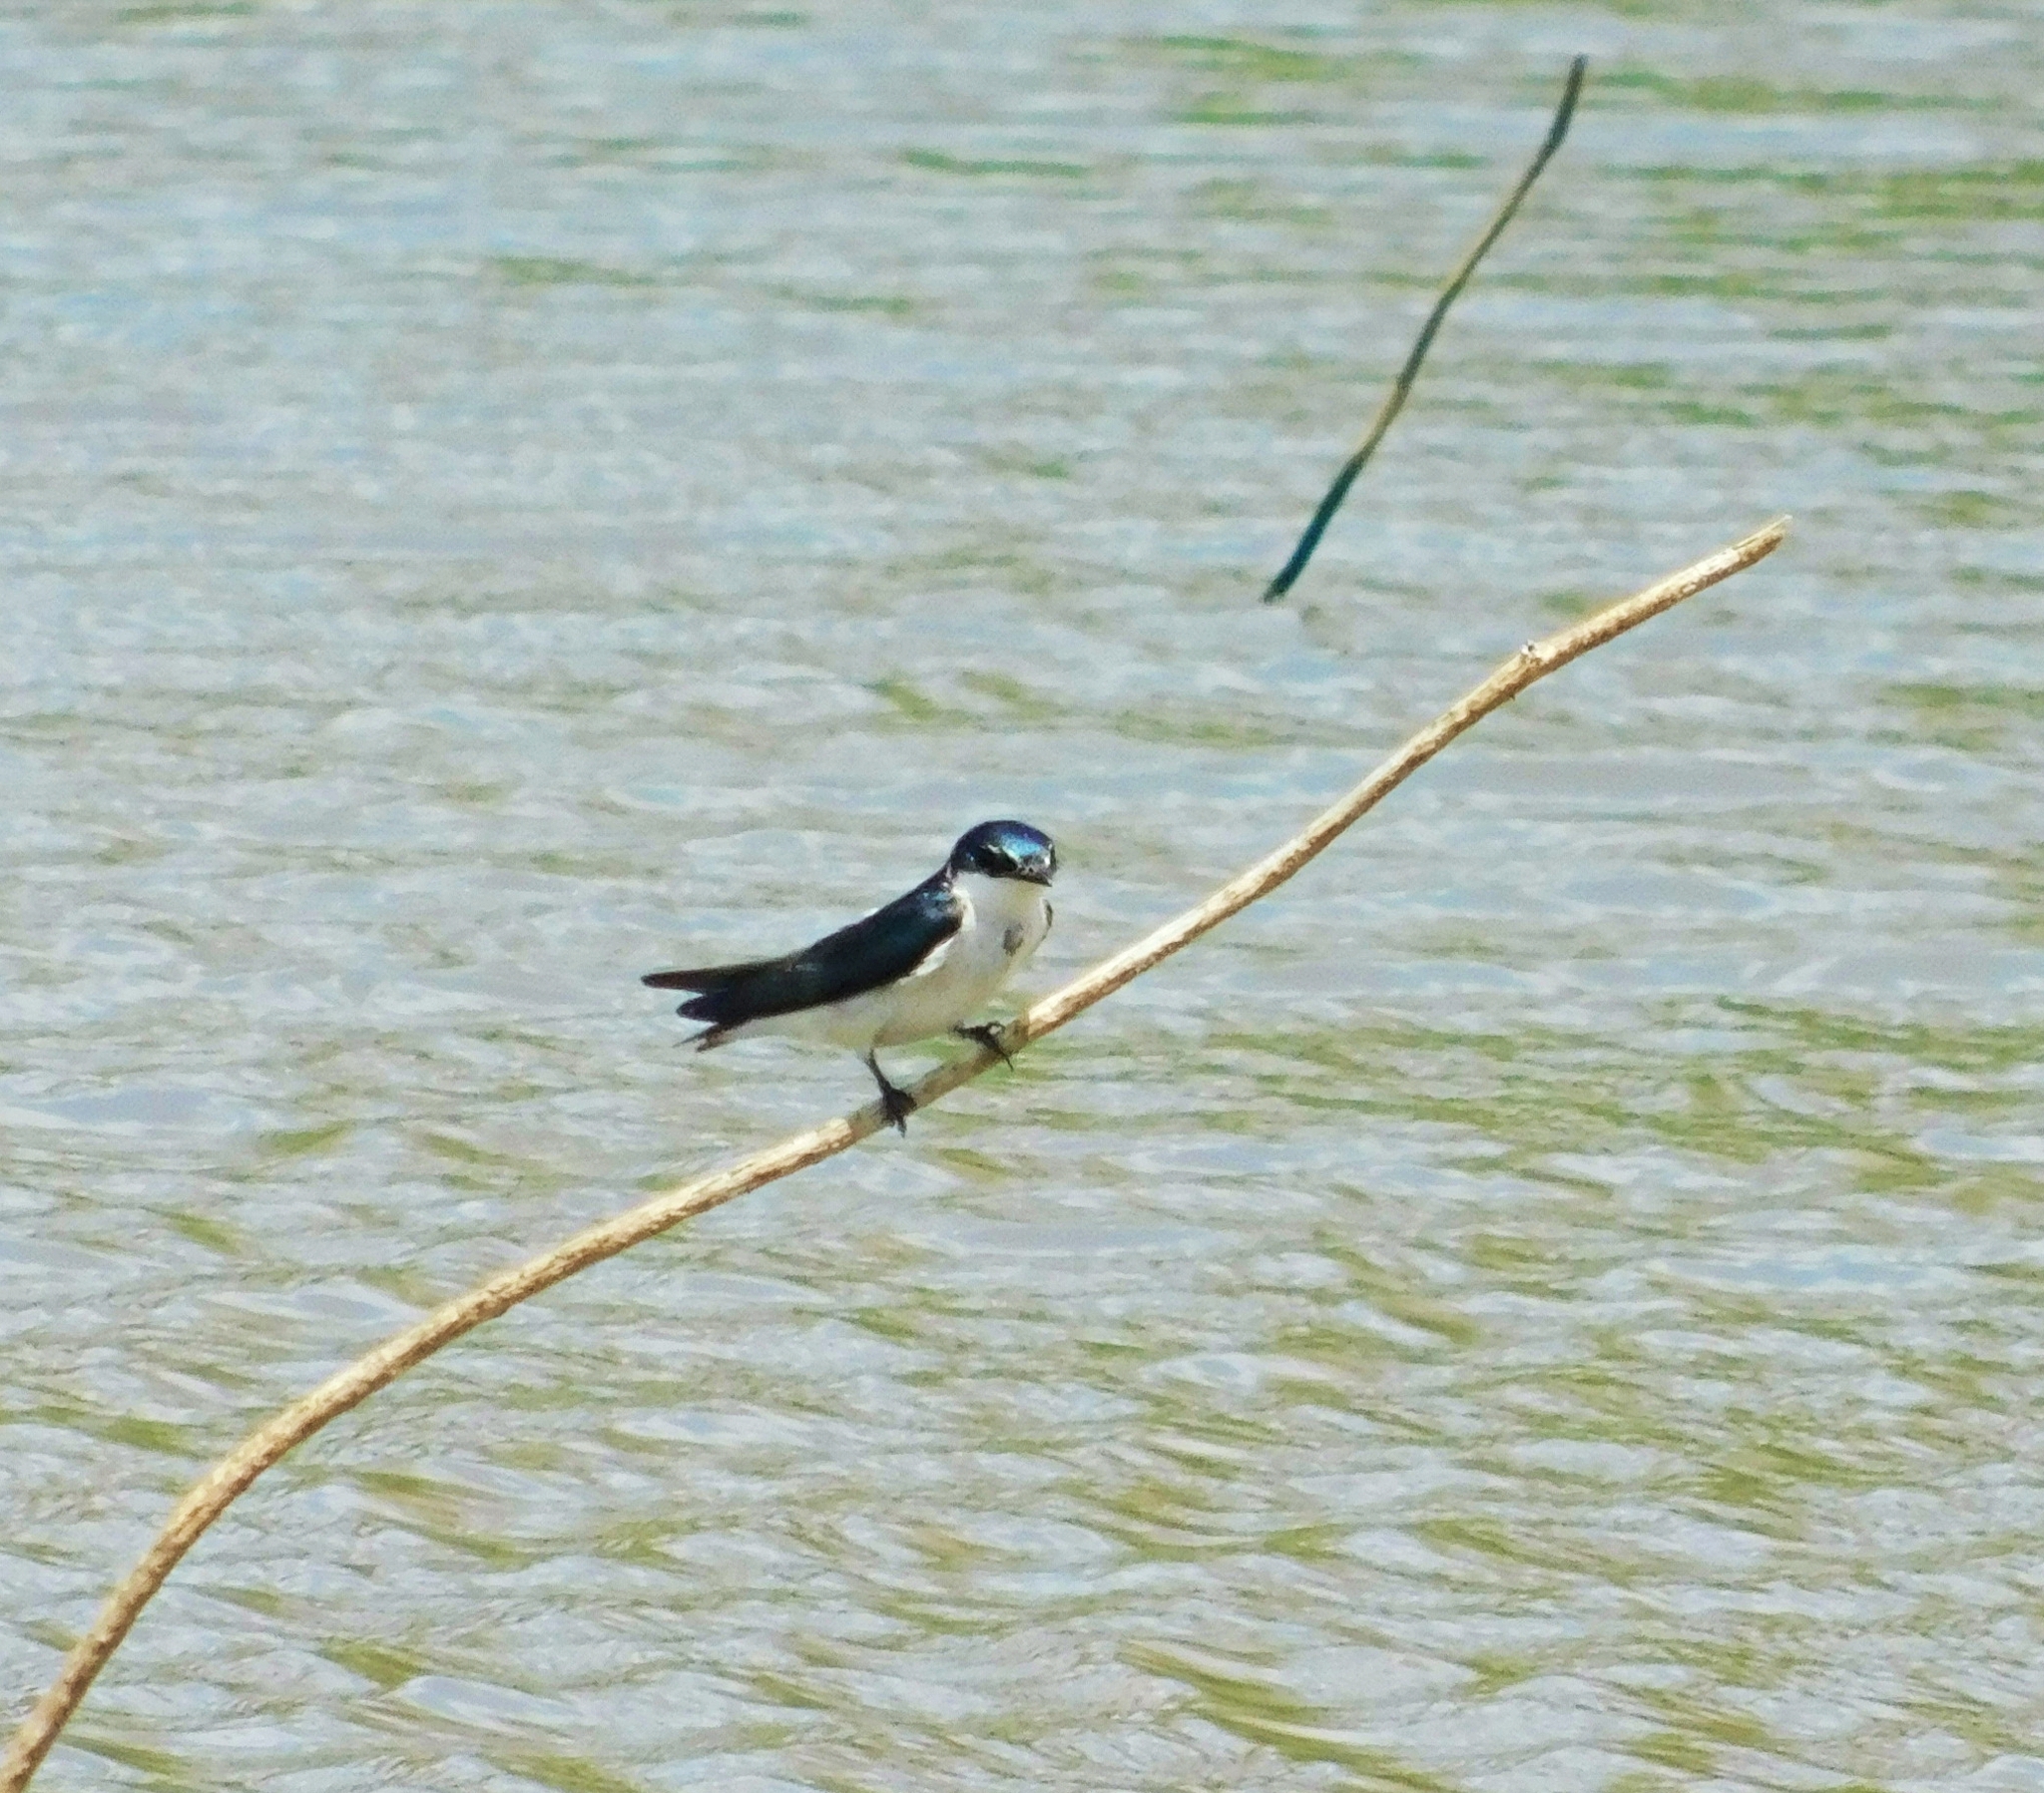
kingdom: Animalia
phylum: Chordata
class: Aves
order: Passeriformes
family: Hirundinidae
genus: Tachycineta
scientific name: Tachycineta albilinea
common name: Mangrove swallow
